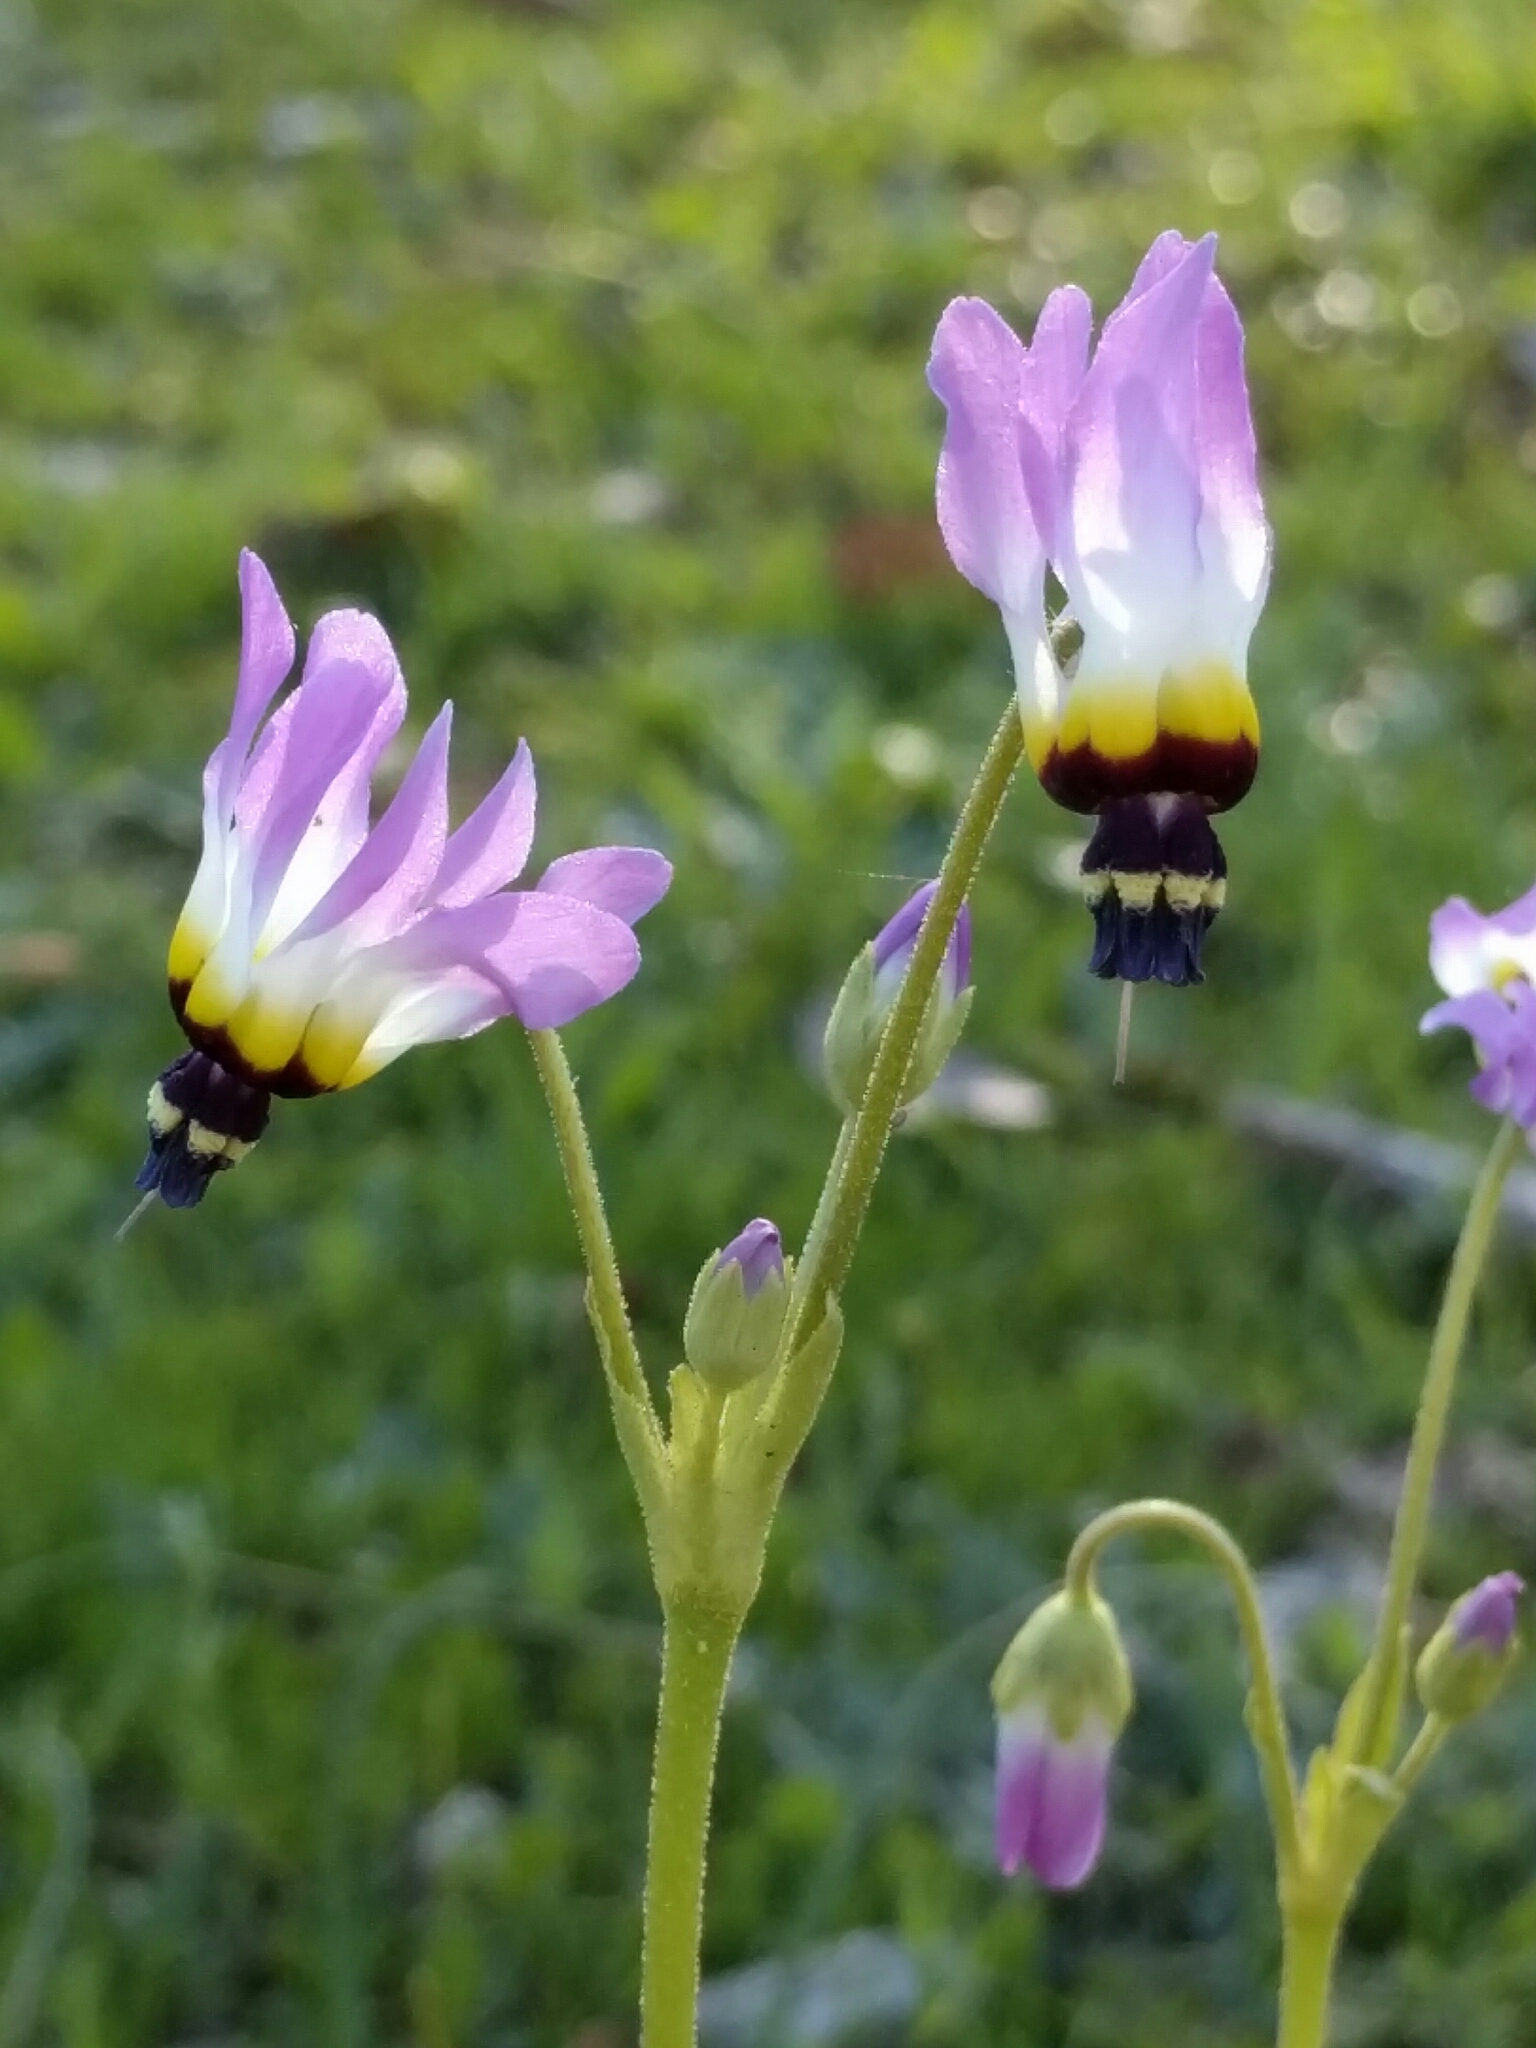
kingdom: Plantae
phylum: Tracheophyta
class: Magnoliopsida
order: Ericales
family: Primulaceae
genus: Dodecatheon
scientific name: Dodecatheon clevelandii
